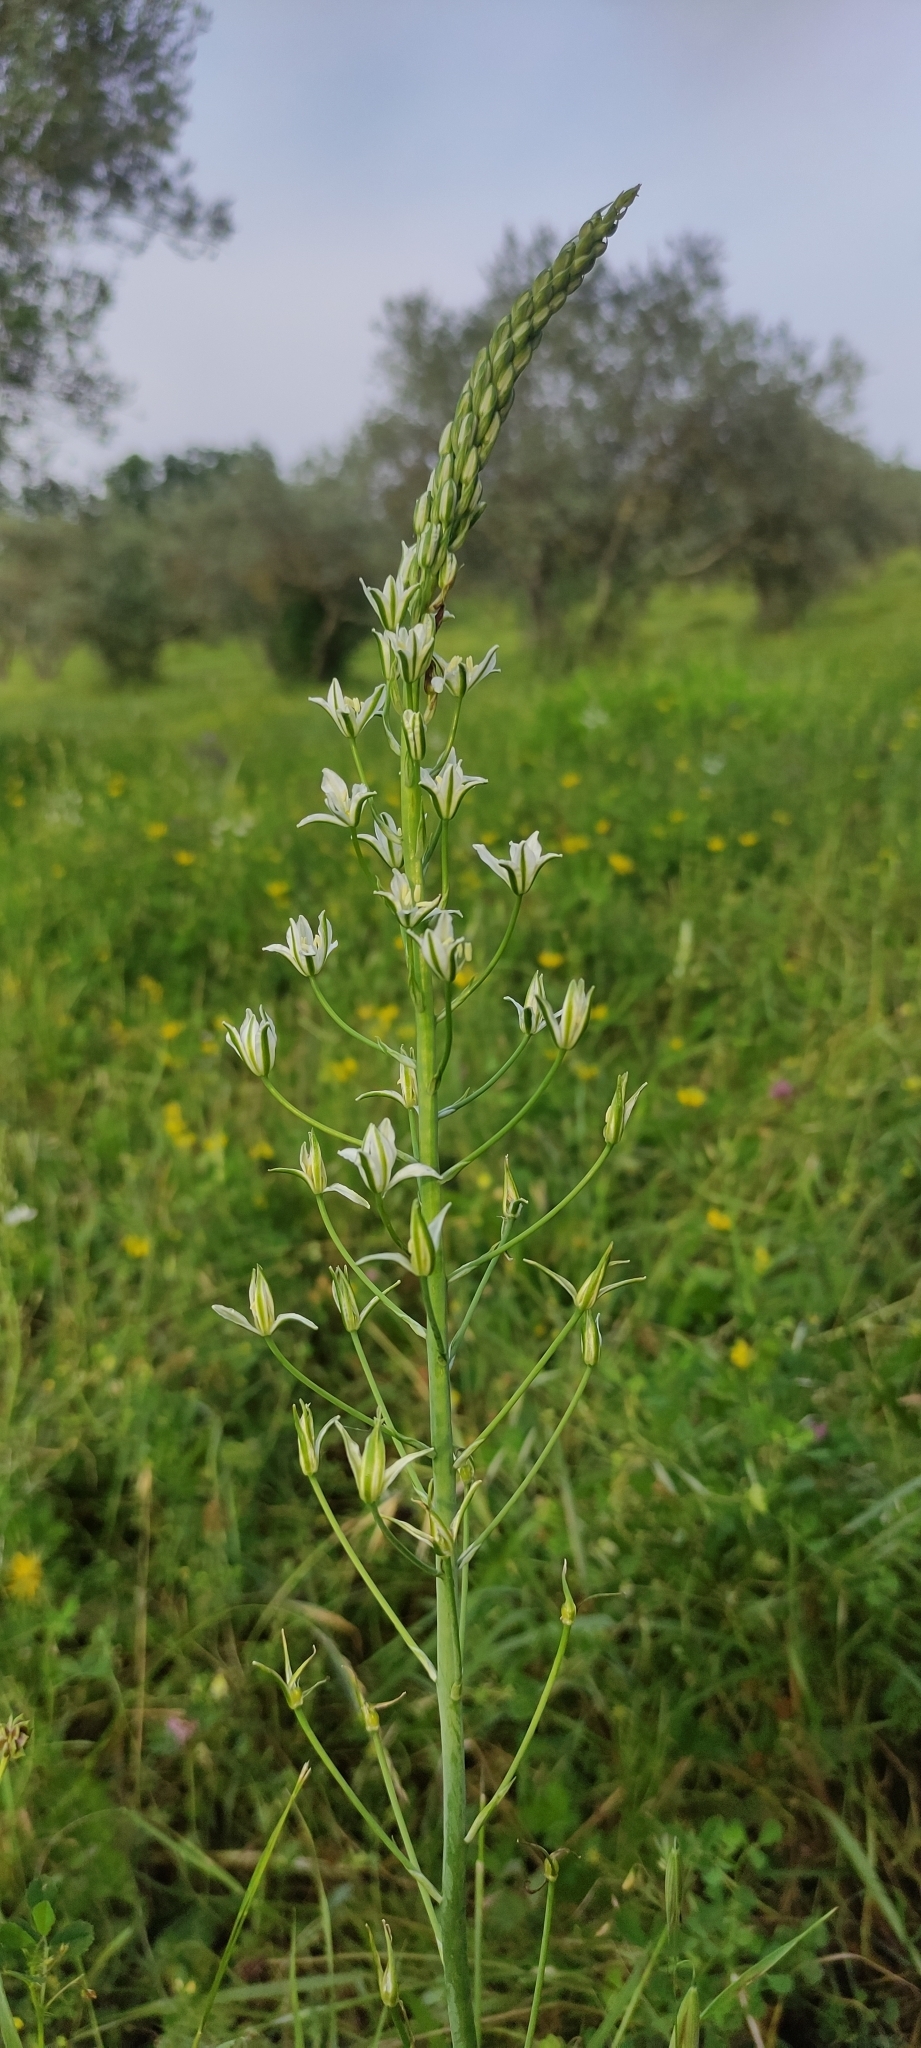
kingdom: Plantae
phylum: Tracheophyta
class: Liliopsida
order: Asparagales
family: Asparagaceae
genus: Ornithogalum
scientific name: Ornithogalum narbonense
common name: Bath-asparagus
